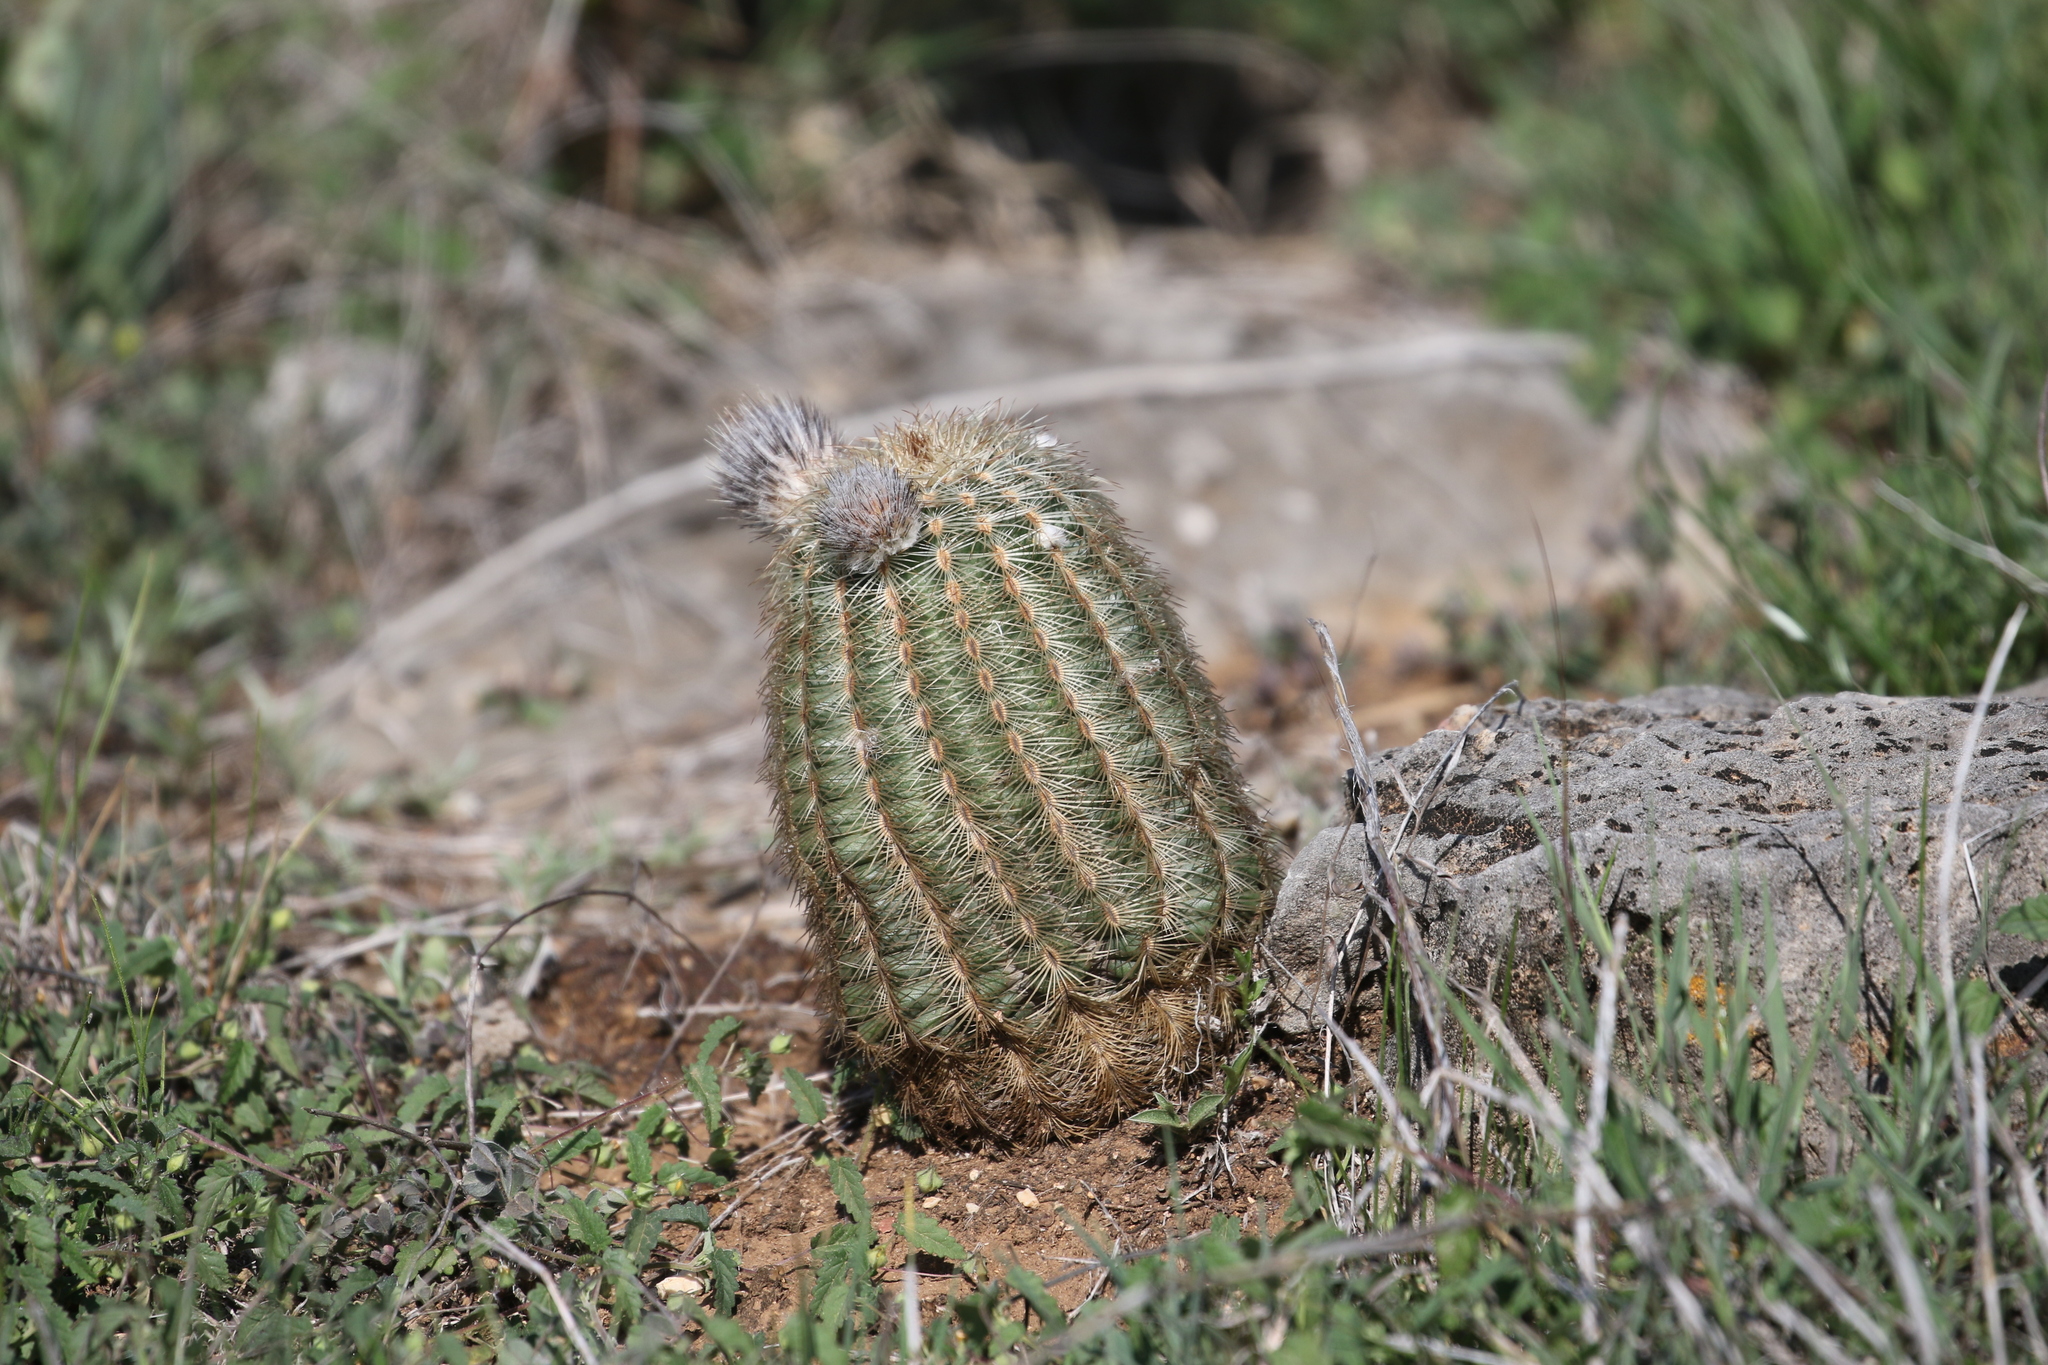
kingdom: Plantae
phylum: Tracheophyta
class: Magnoliopsida
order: Caryophyllales
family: Cactaceae
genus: Echinocereus
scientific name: Echinocereus reichenbachii
